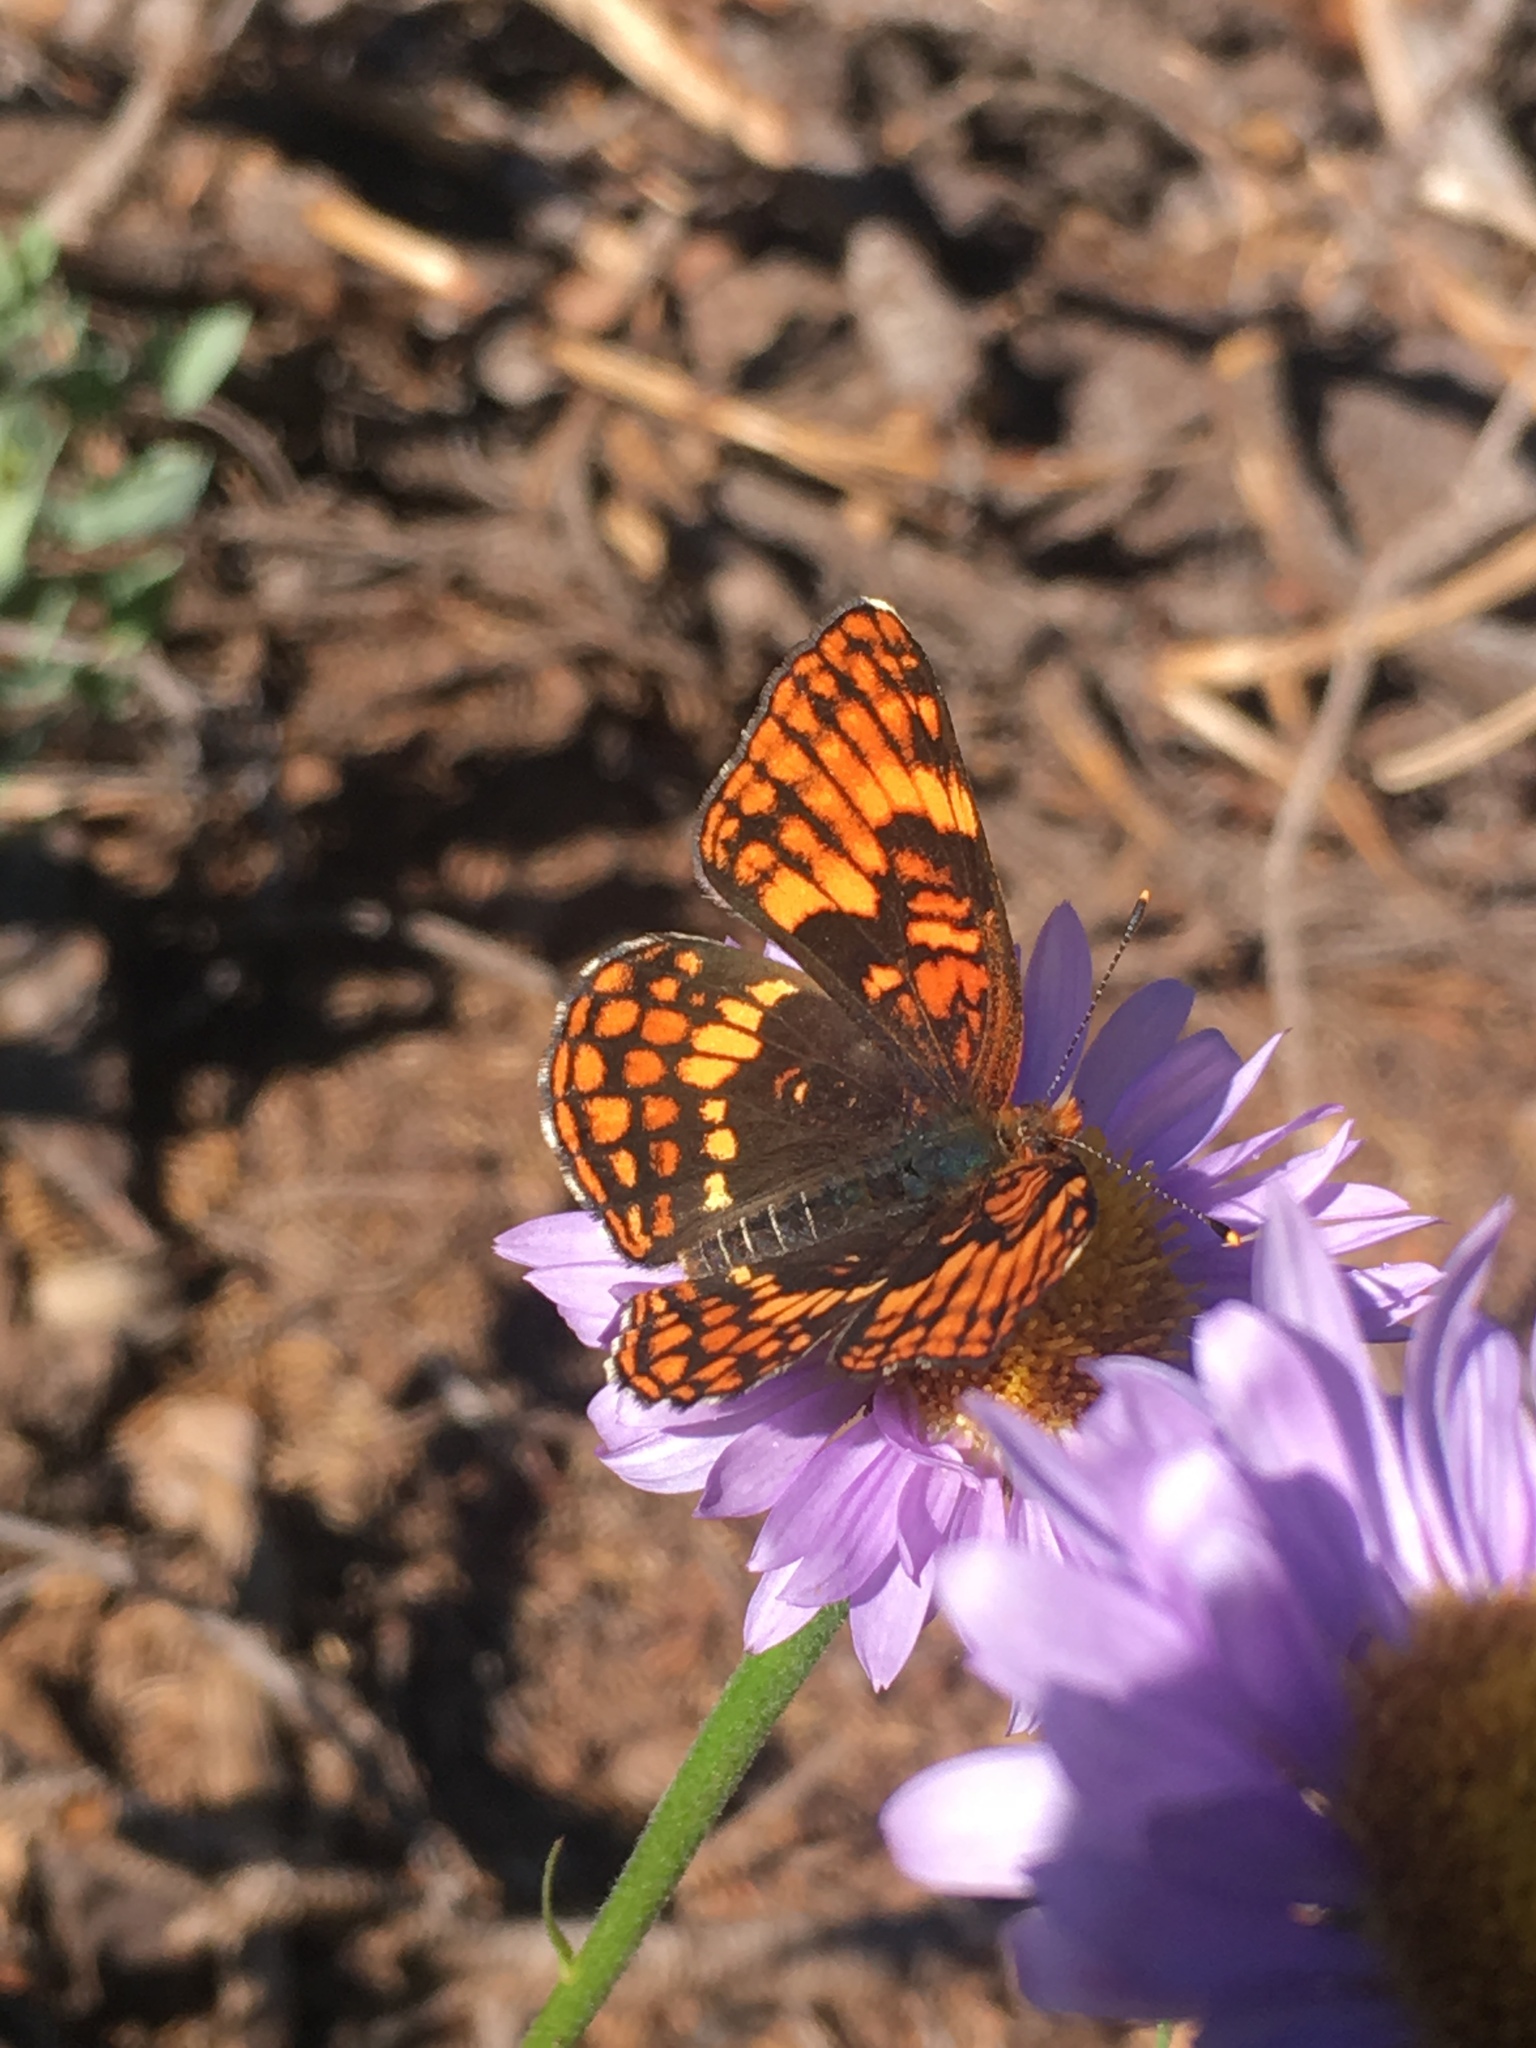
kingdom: Animalia
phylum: Arthropoda
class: Insecta
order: Lepidoptera
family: Nymphalidae
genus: Chlosyne
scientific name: Chlosyne hoffmanni
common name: Hoffmann's checkerspot
